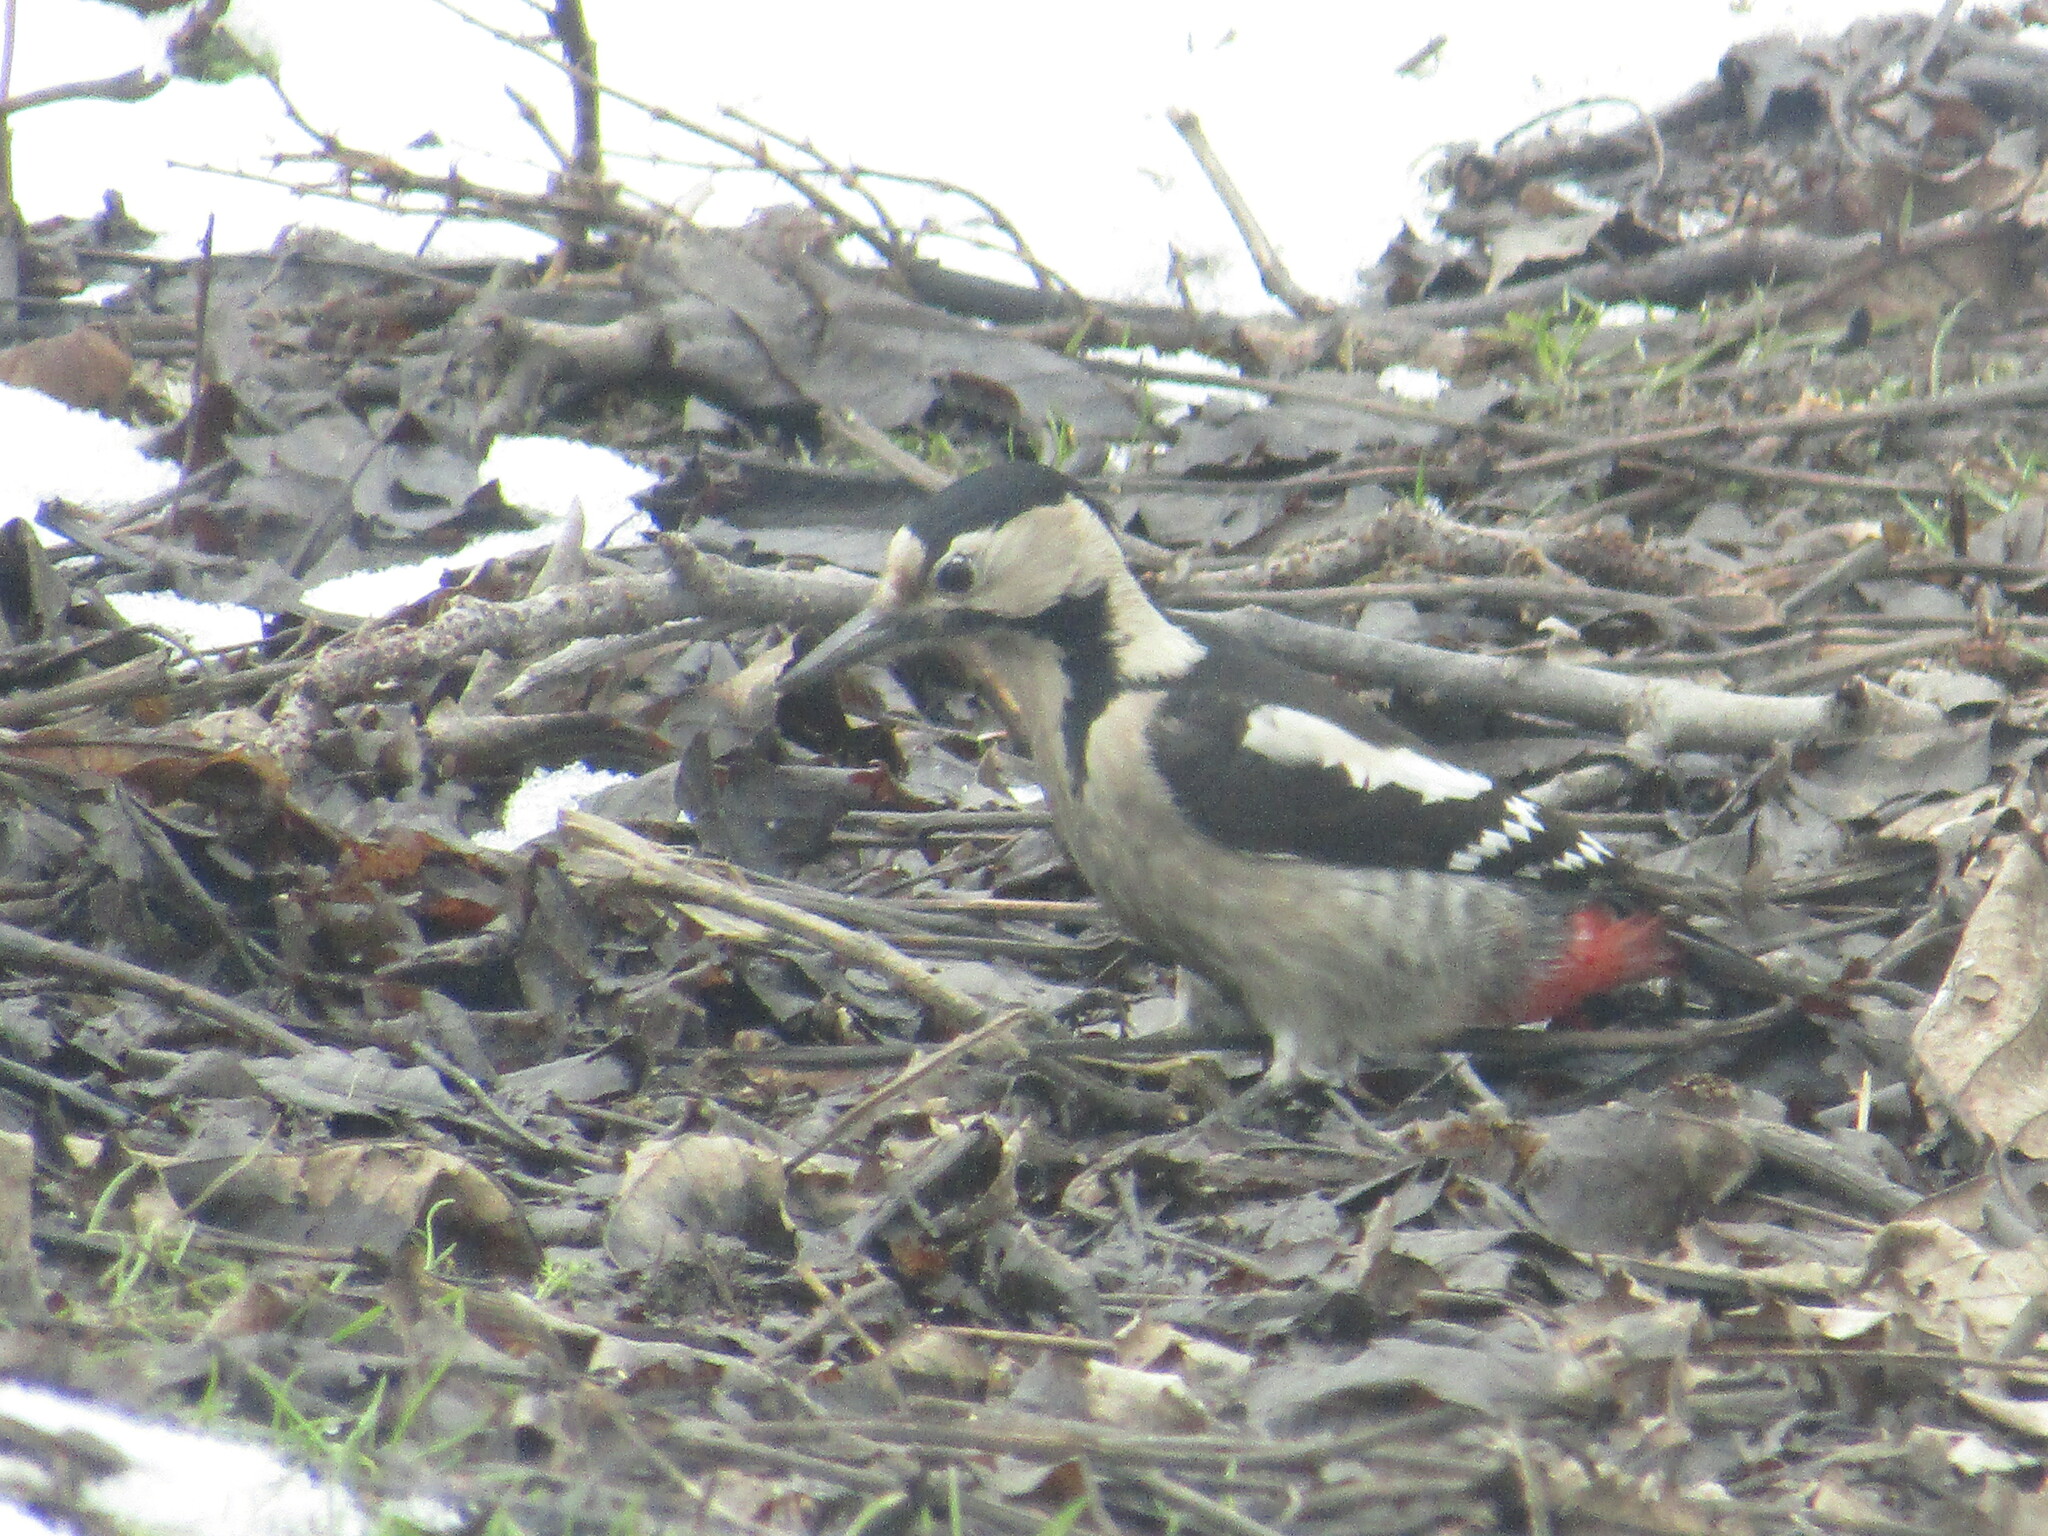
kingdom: Animalia
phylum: Chordata
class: Aves
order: Piciformes
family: Picidae
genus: Dendrocopos
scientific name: Dendrocopos syriacus
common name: Syrian woodpecker
